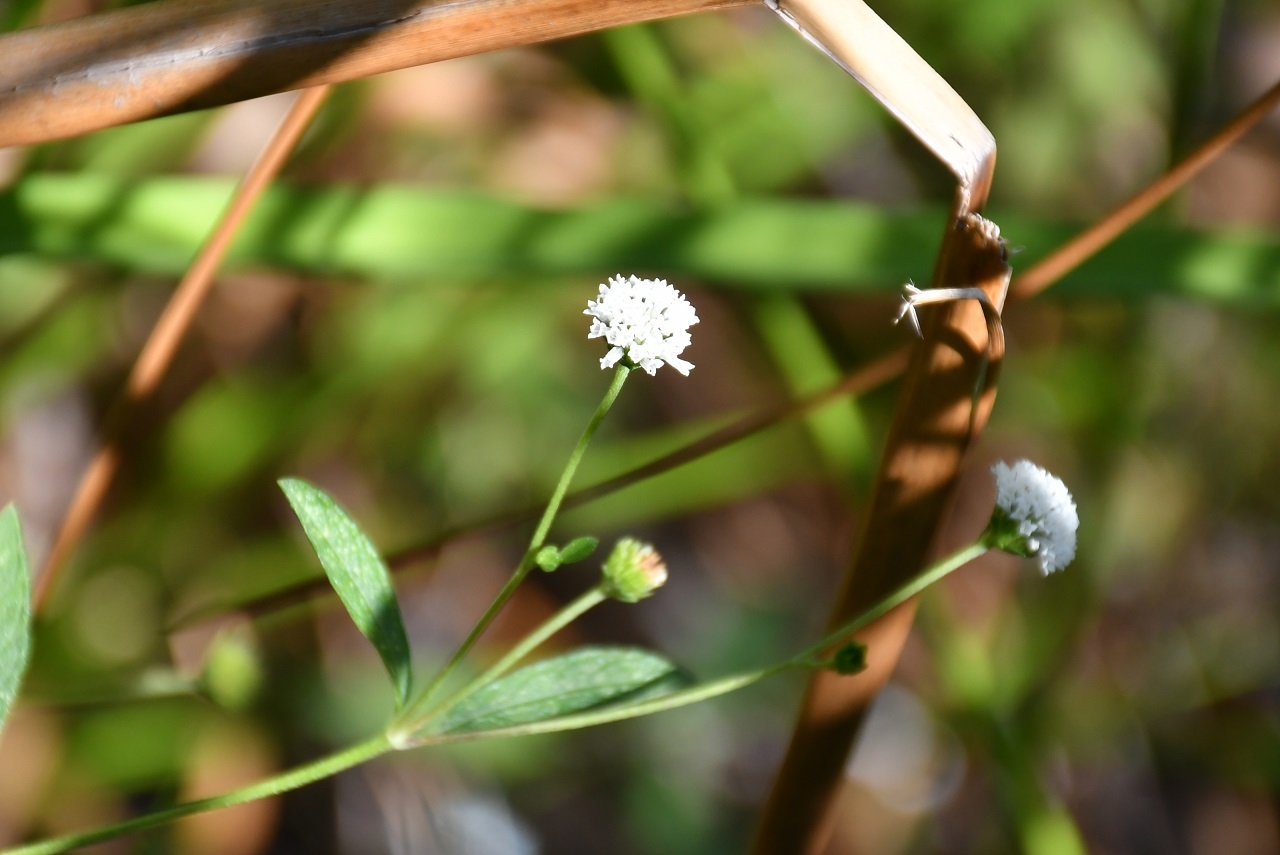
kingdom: Plantae
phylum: Tracheophyta
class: Magnoliopsida
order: Asterales
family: Asteraceae
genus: Melanthera
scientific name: Melanthera angustifolia
